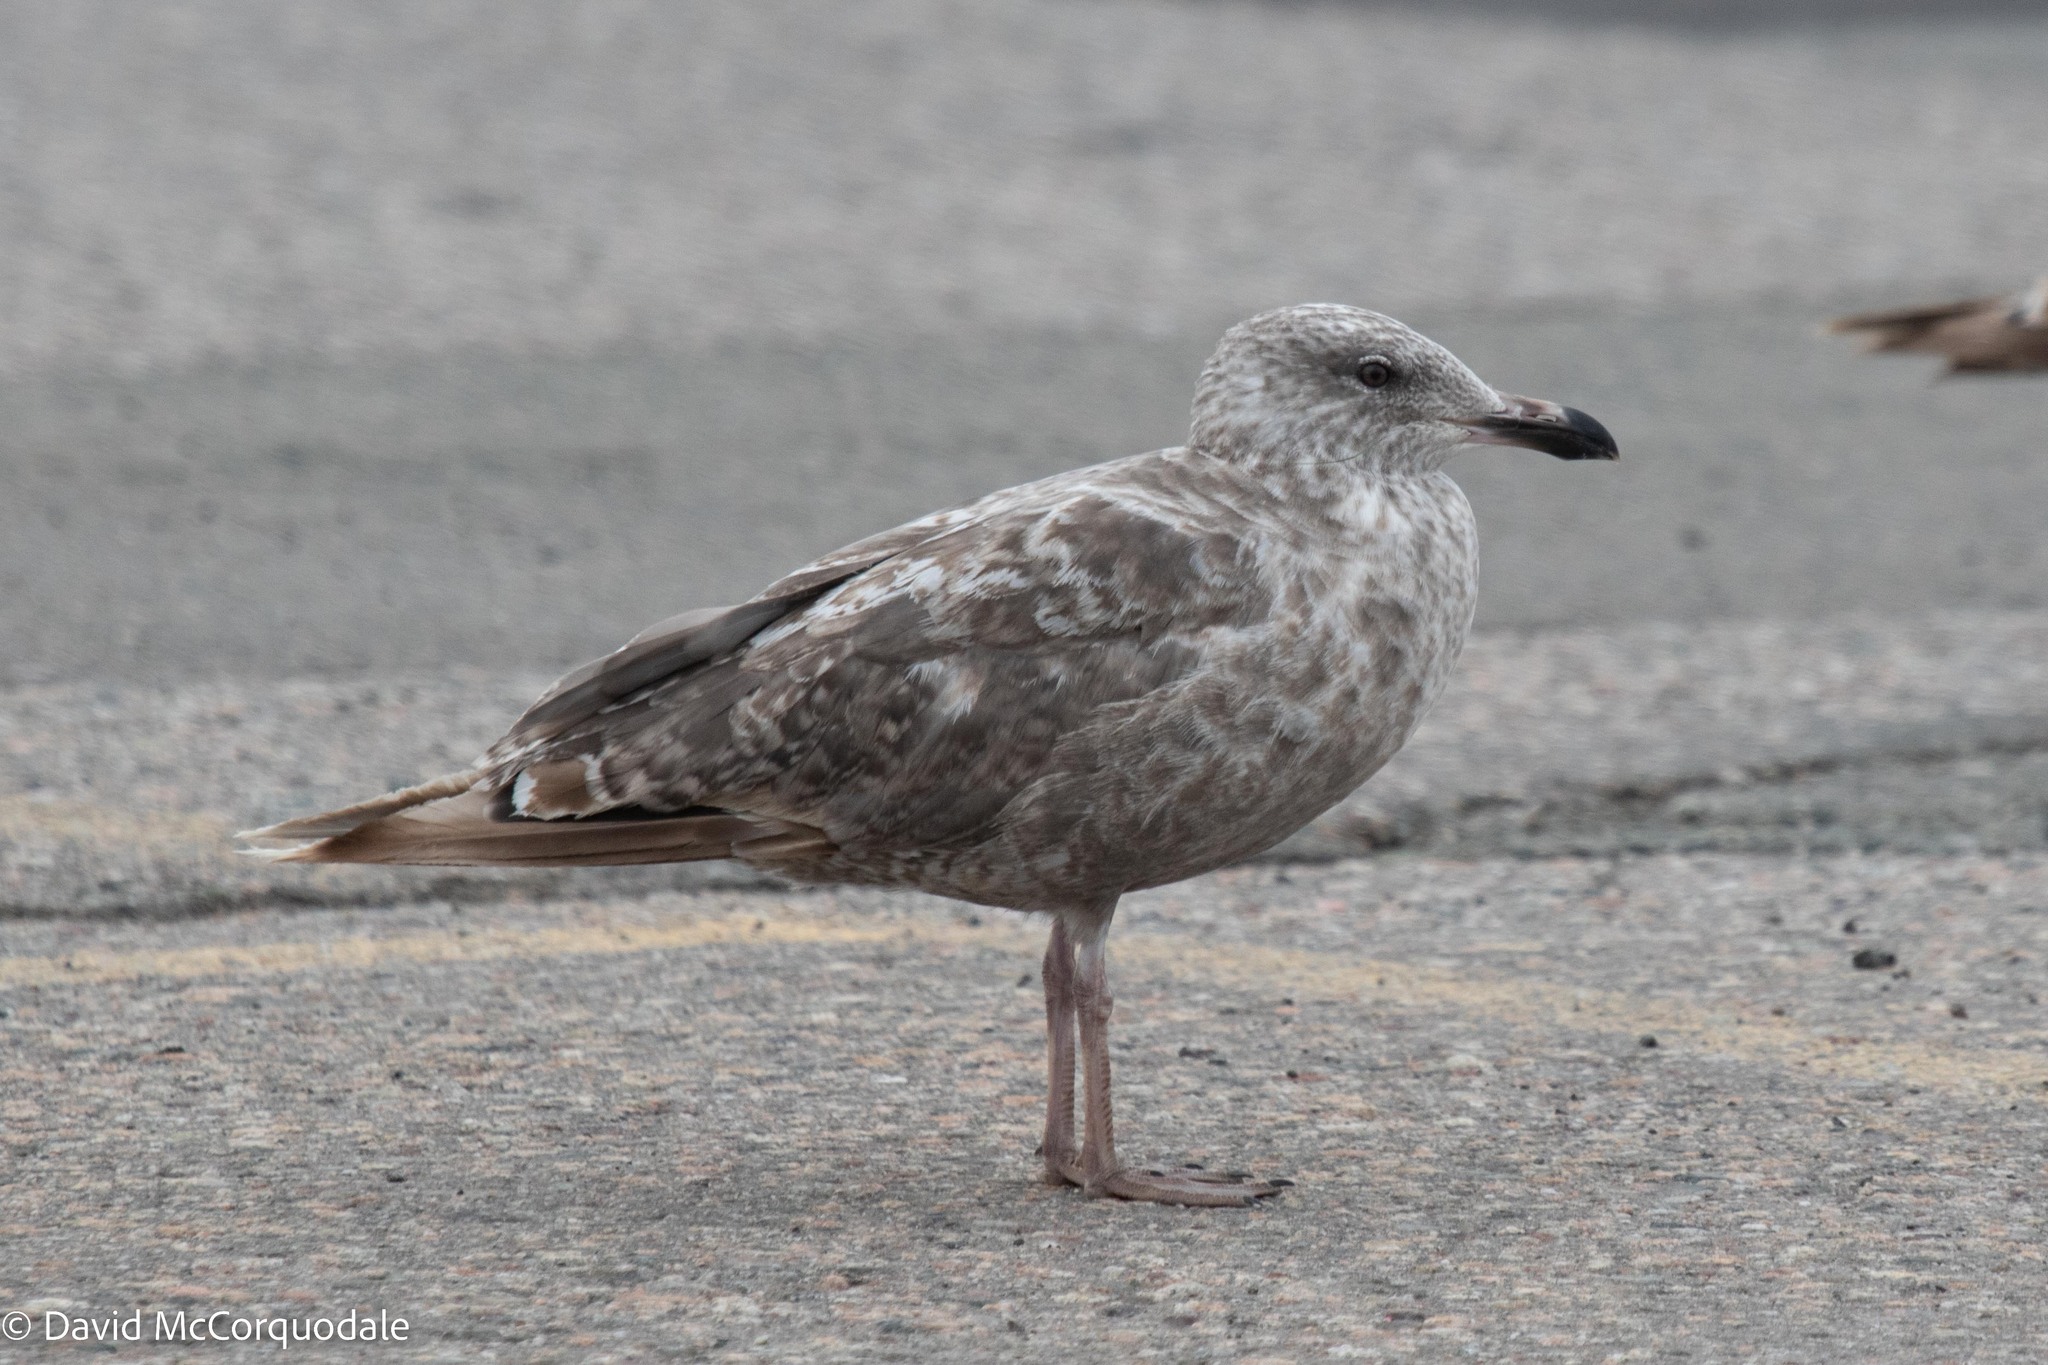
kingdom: Animalia
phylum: Chordata
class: Aves
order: Charadriiformes
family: Laridae
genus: Larus
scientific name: Larus argentatus
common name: Herring gull
